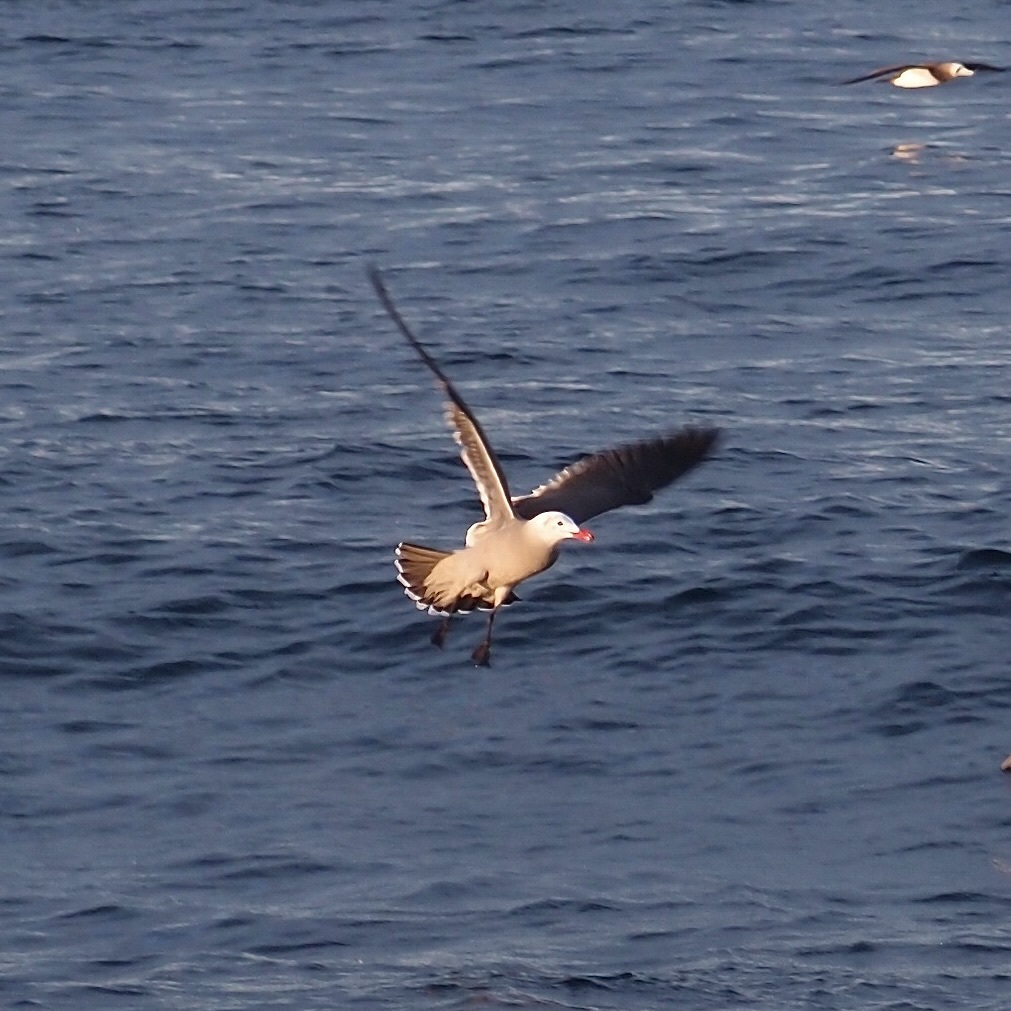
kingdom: Animalia
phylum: Chordata
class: Aves
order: Charadriiformes
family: Laridae
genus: Larus
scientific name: Larus heermanni
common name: Heermann's gull
